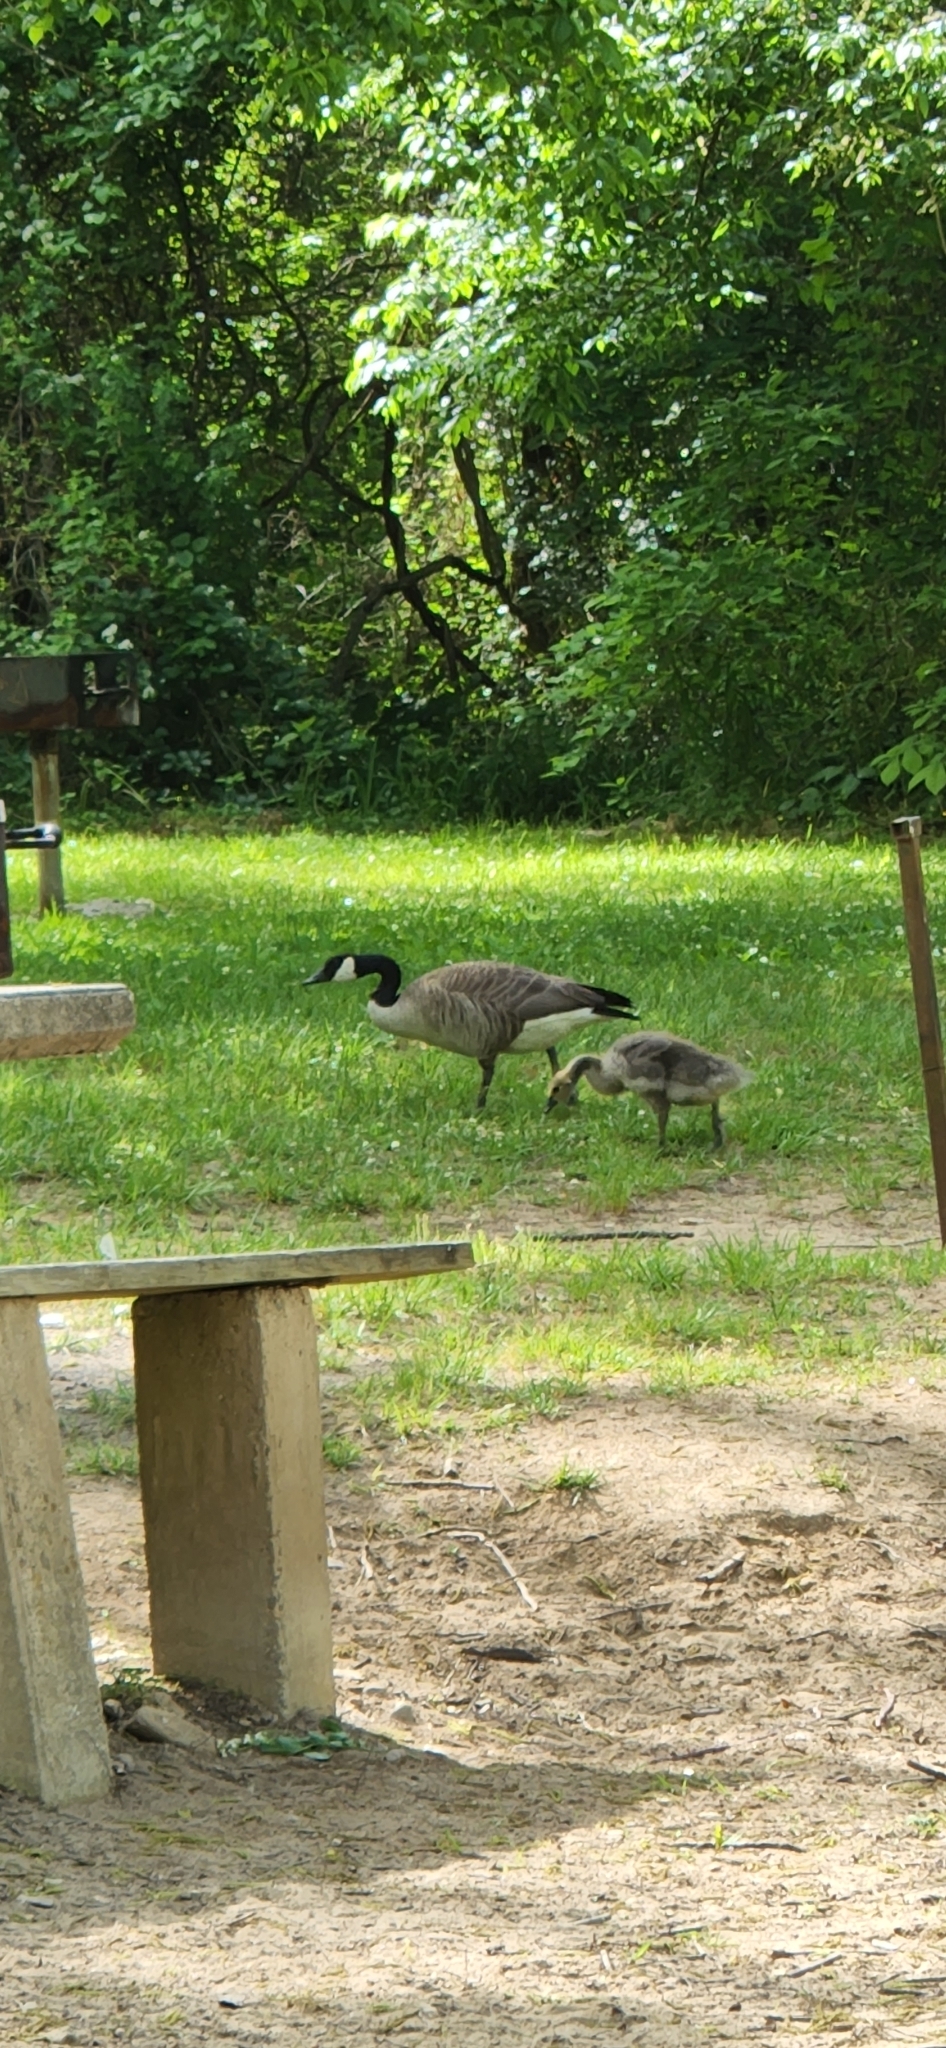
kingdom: Animalia
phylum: Chordata
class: Aves
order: Anseriformes
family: Anatidae
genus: Branta
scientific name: Branta canadensis
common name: Canada goose
